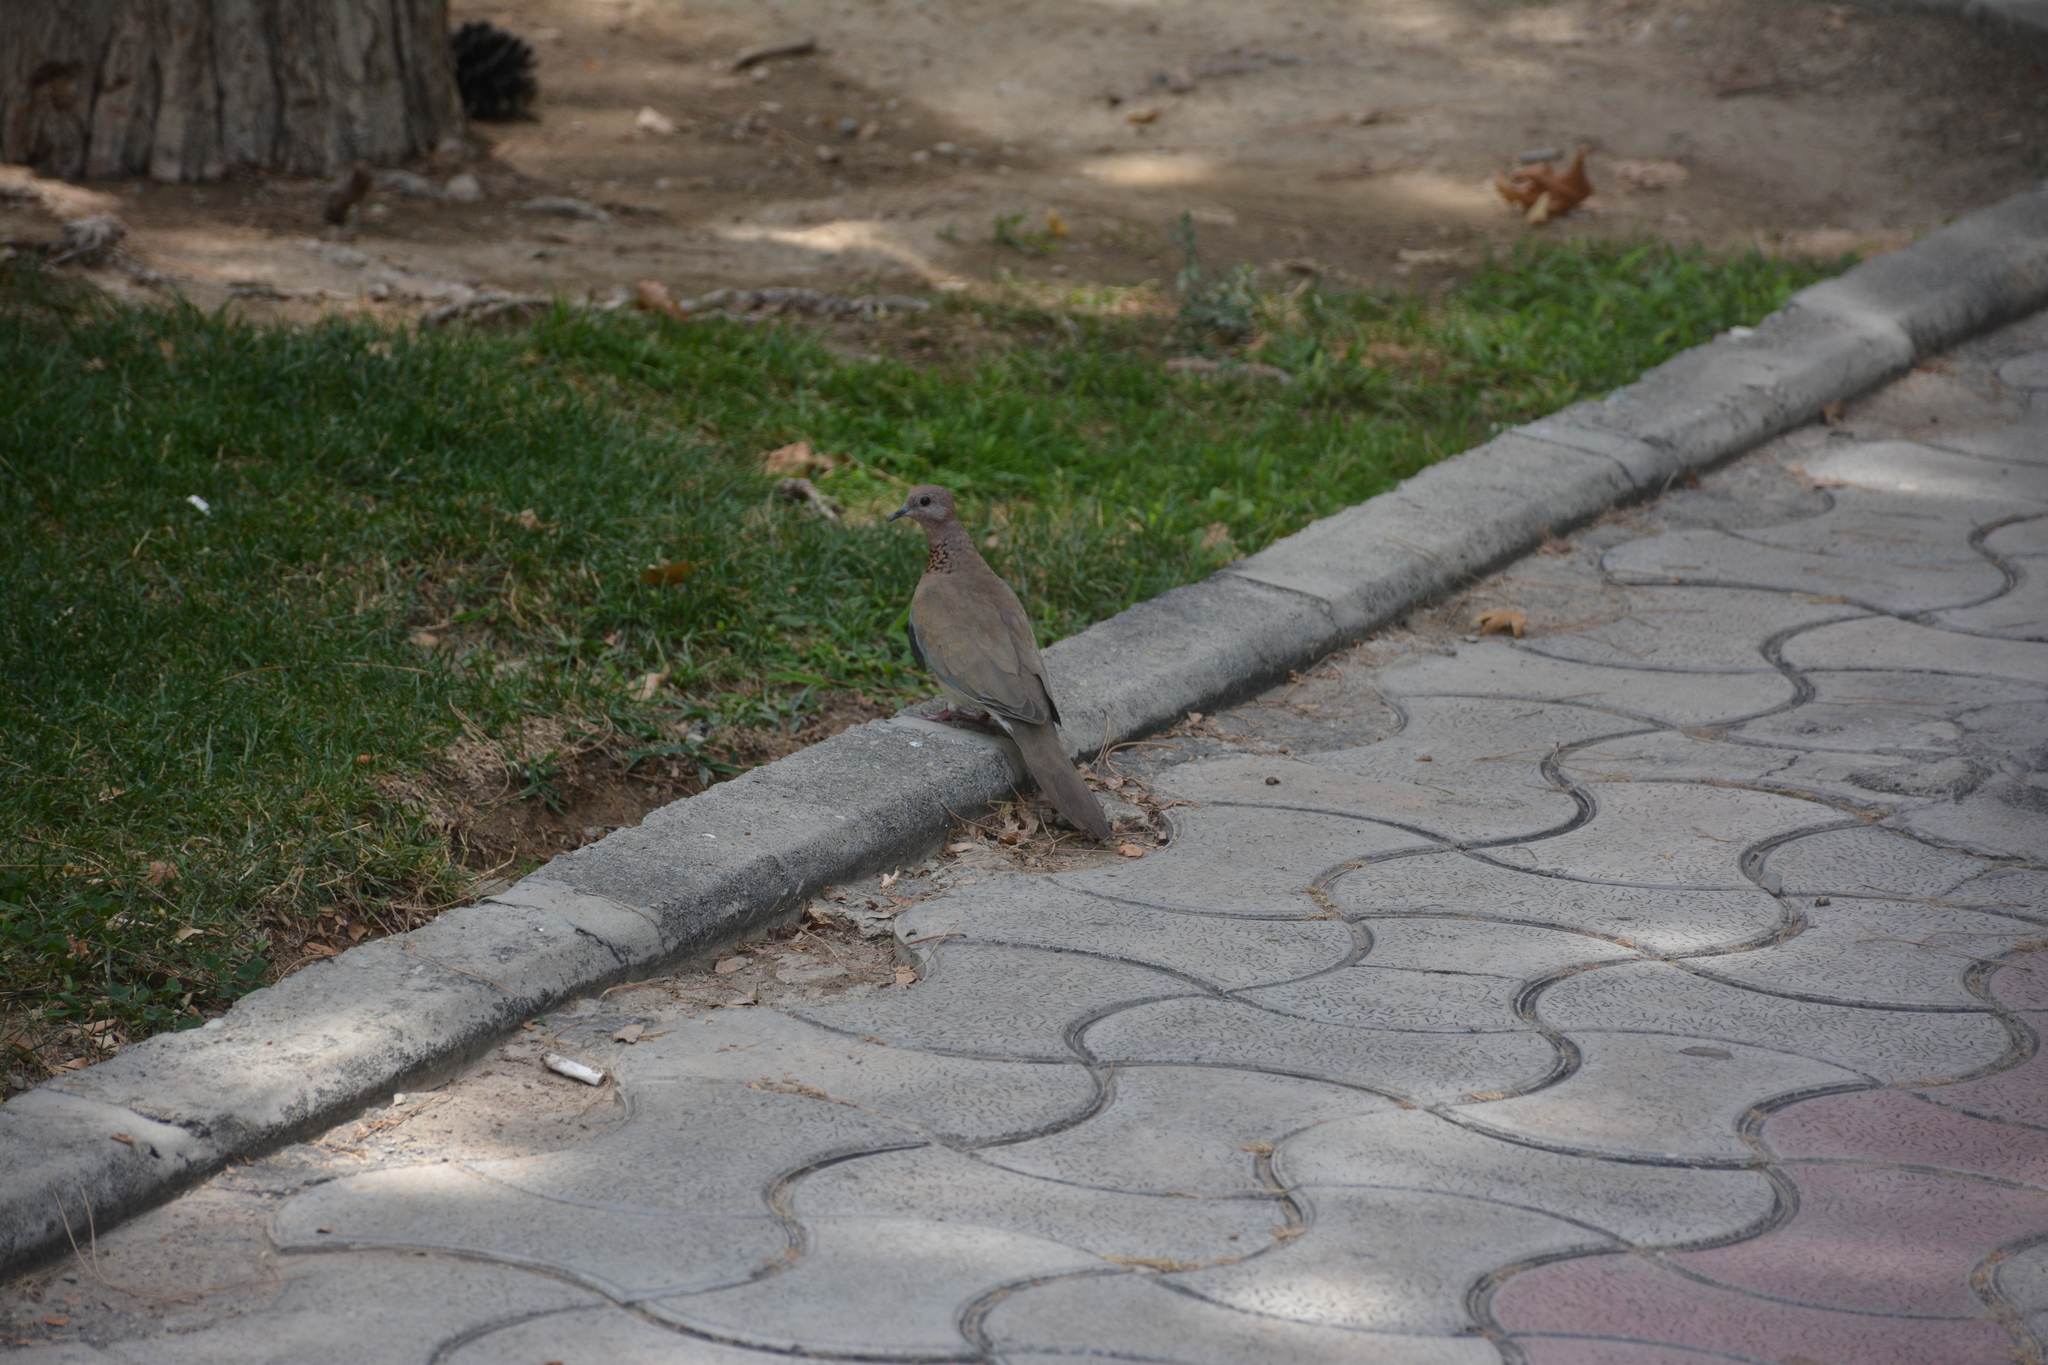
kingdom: Animalia
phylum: Chordata
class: Aves
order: Columbiformes
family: Columbidae
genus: Spilopelia
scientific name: Spilopelia senegalensis
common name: Laughing dove
